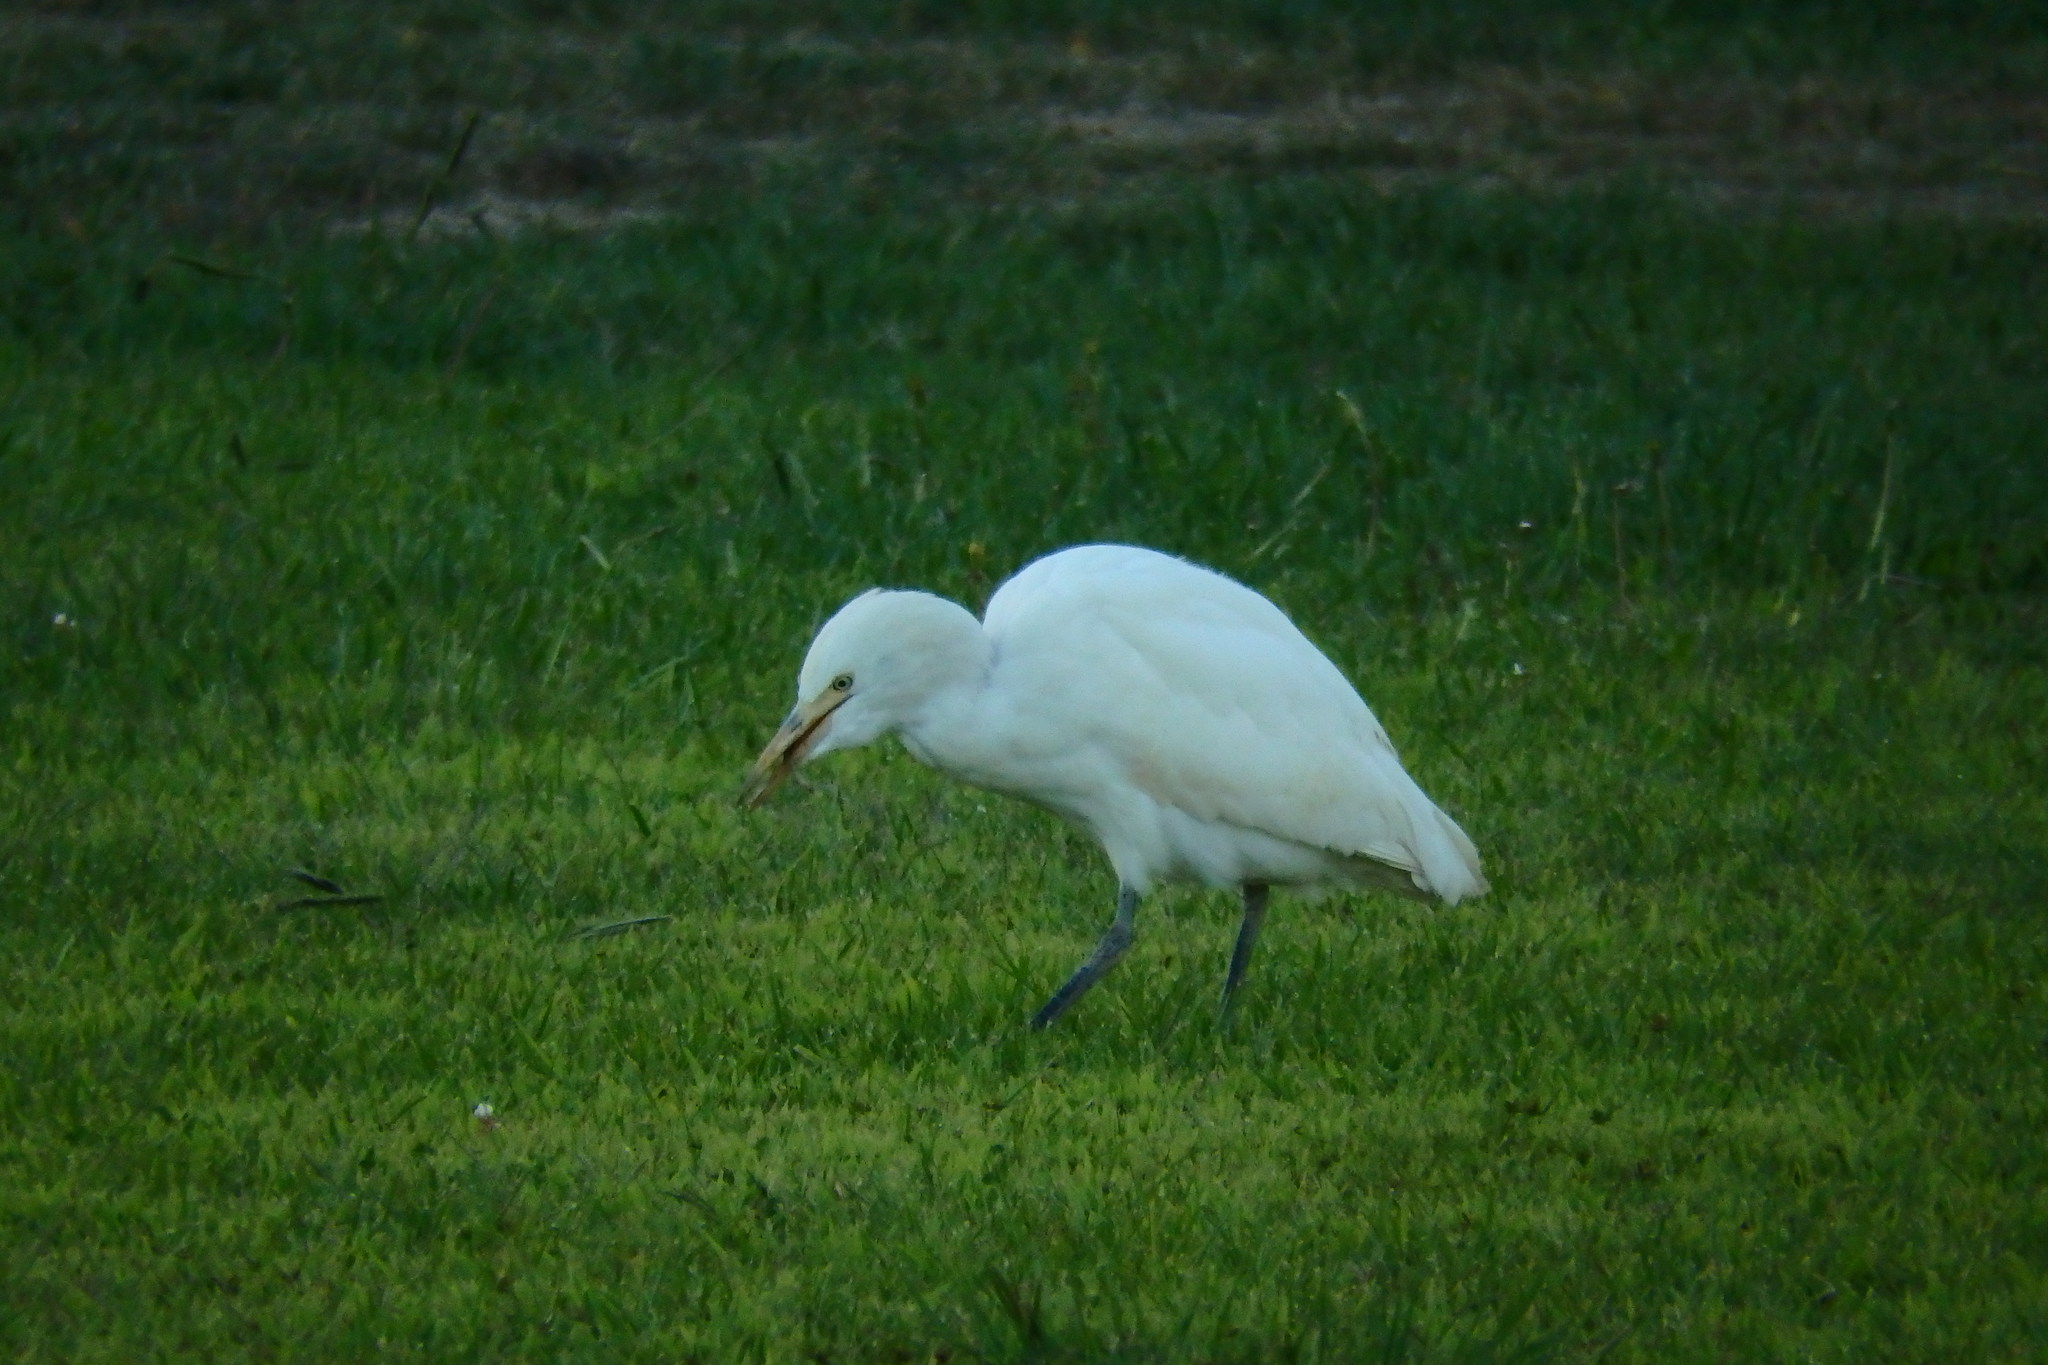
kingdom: Animalia
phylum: Chordata
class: Aves
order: Pelecaniformes
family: Ardeidae
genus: Bubulcus
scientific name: Bubulcus ibis
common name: Cattle egret
